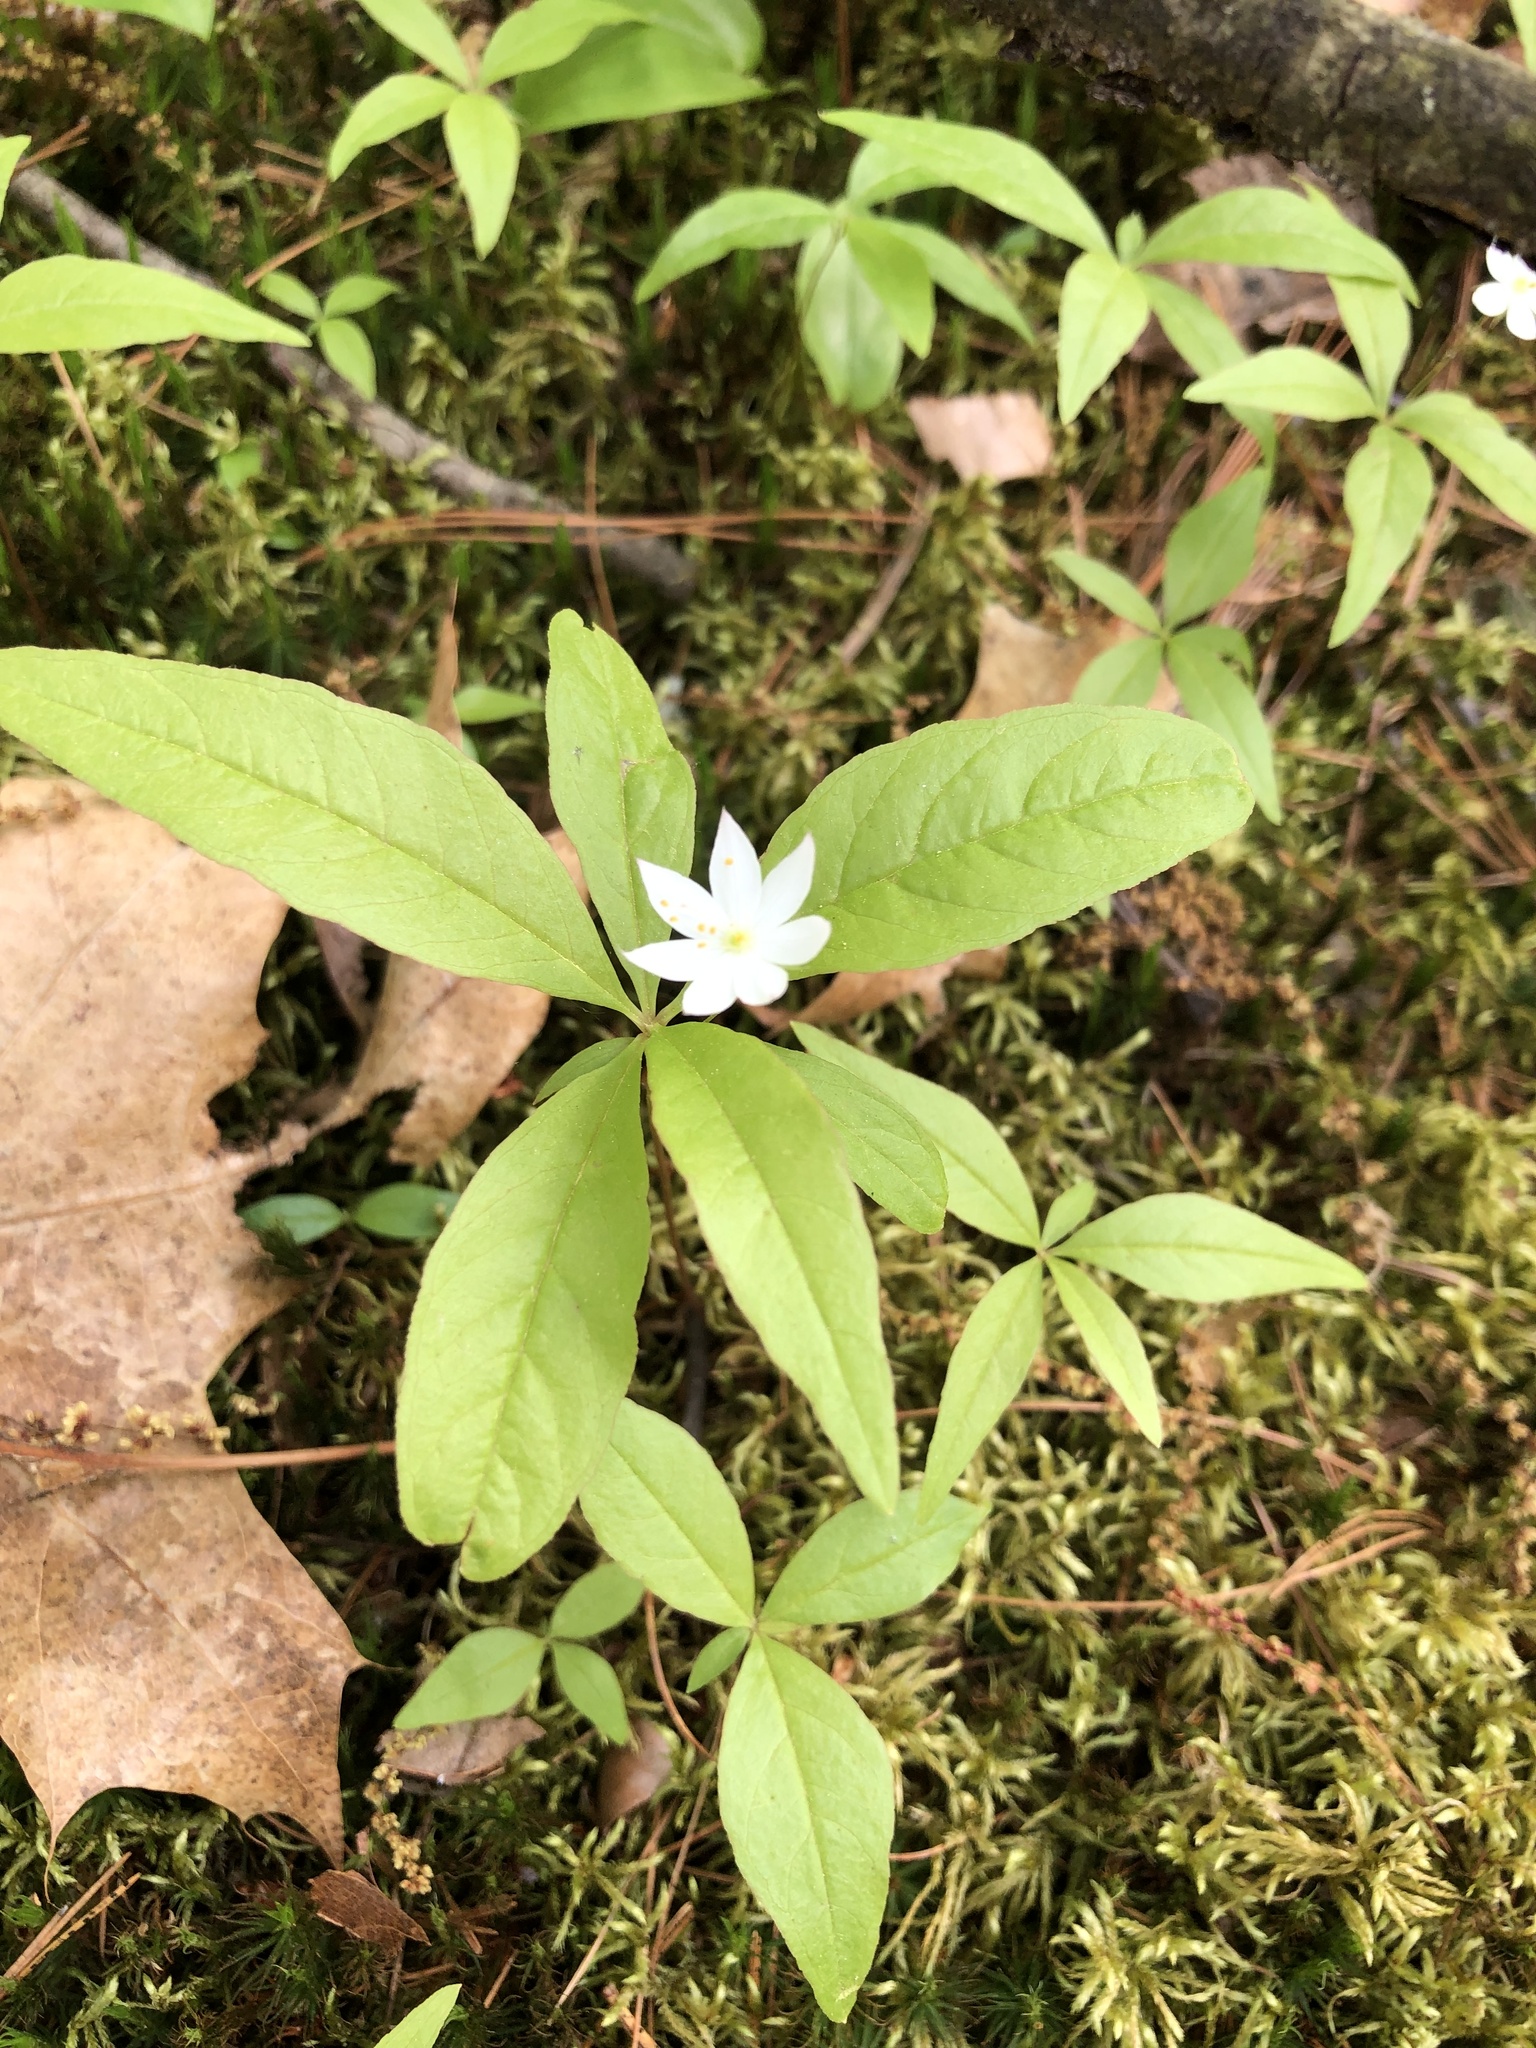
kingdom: Plantae
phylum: Tracheophyta
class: Magnoliopsida
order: Ericales
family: Primulaceae
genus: Lysimachia
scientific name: Lysimachia borealis
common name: American starflower
